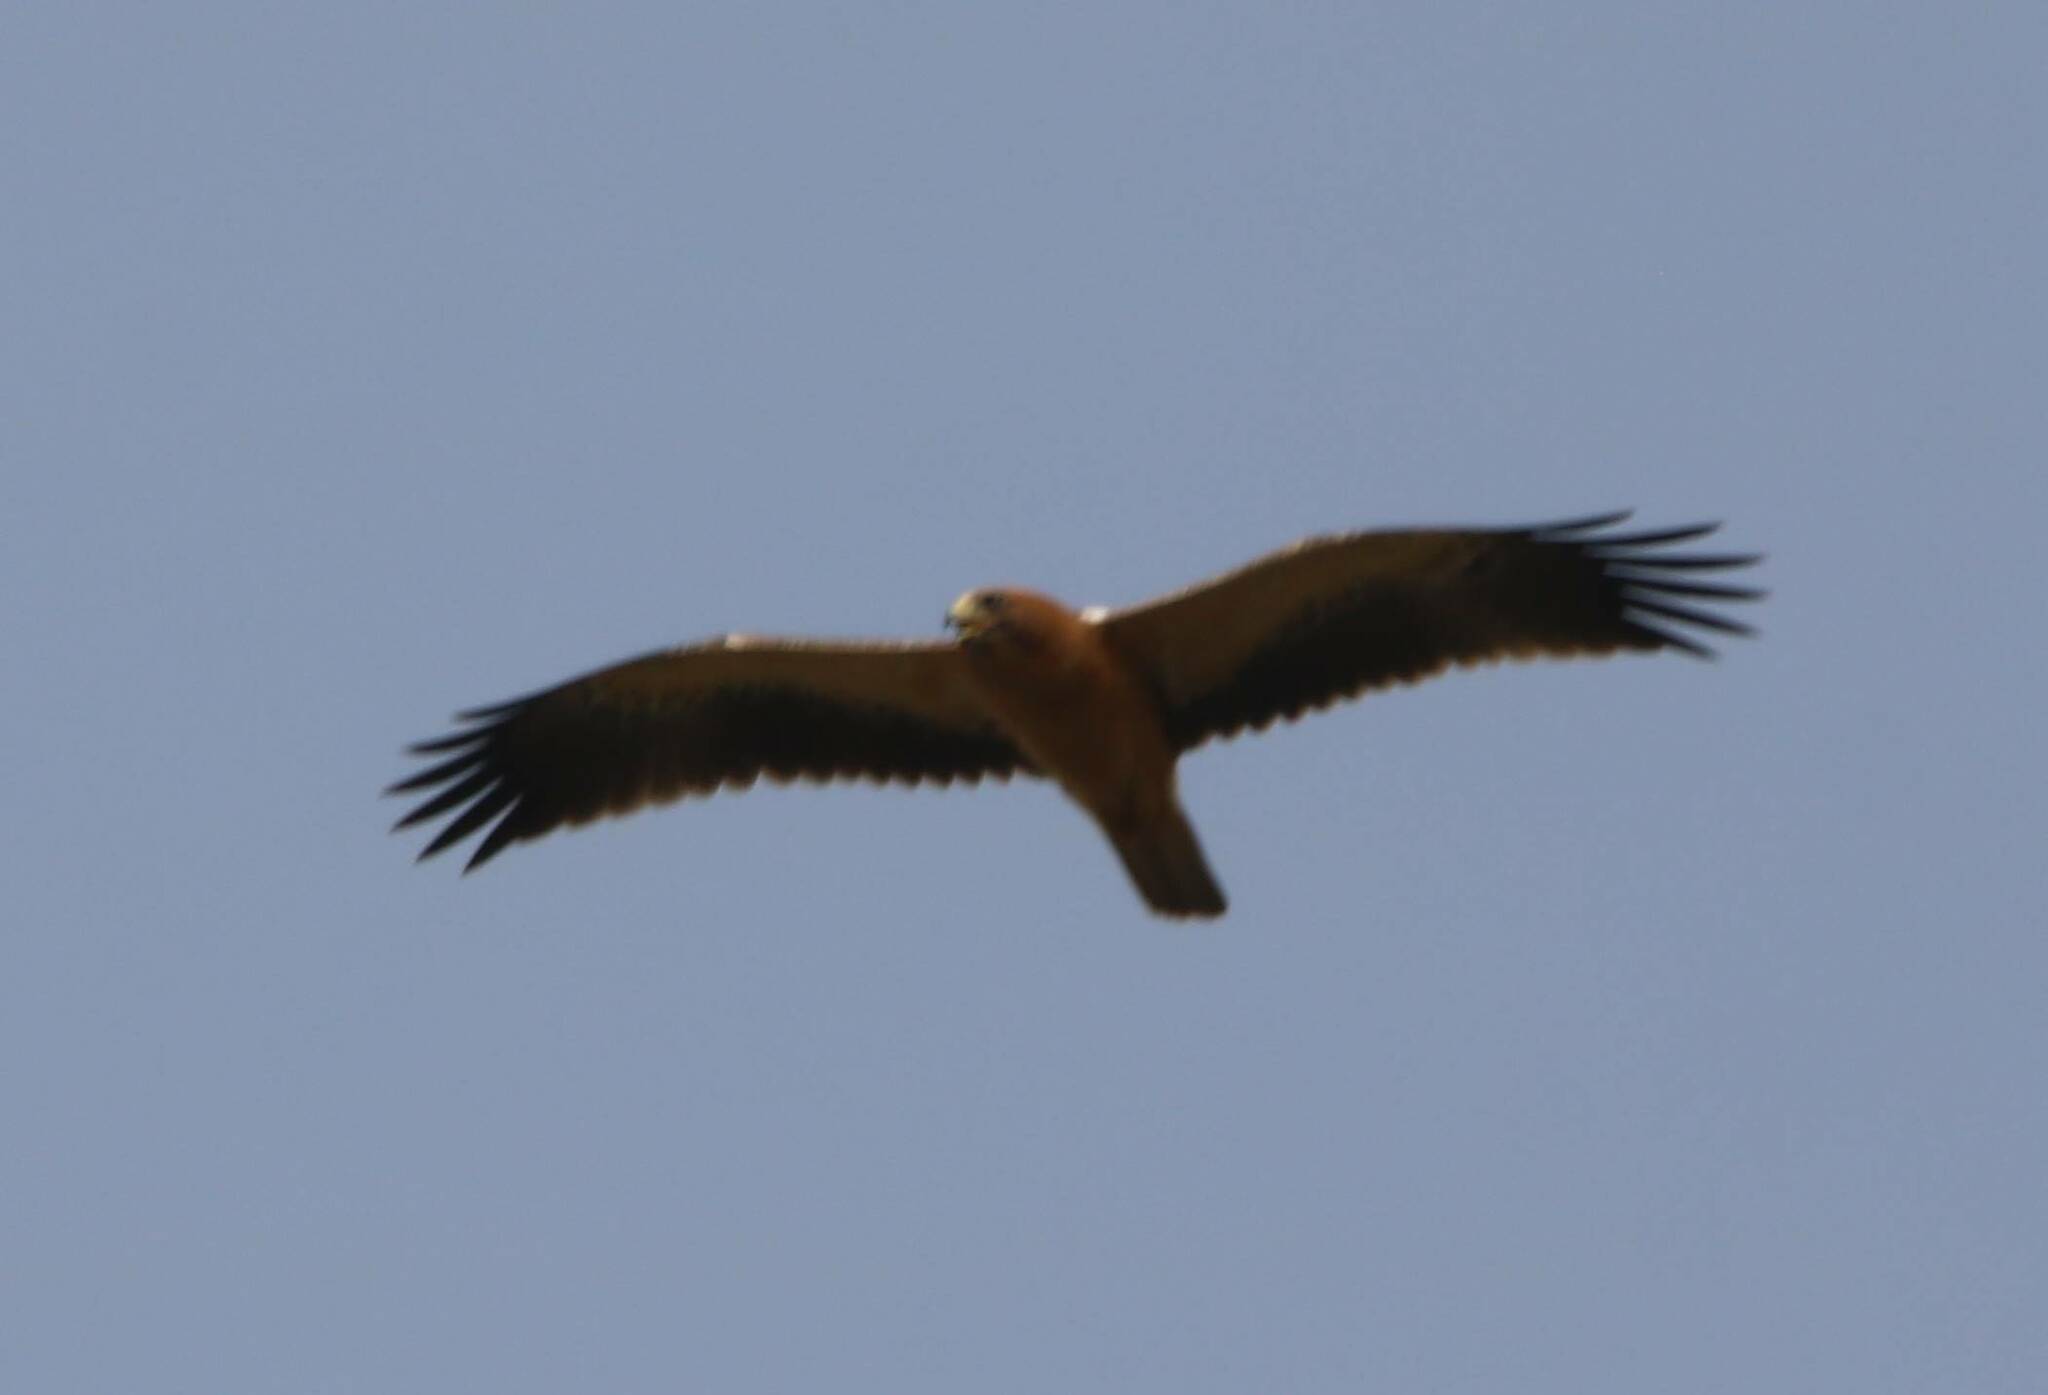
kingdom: Animalia
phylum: Chordata
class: Aves
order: Accipitriformes
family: Accipitridae
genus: Hieraaetus
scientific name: Hieraaetus pennatus
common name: Booted eagle
